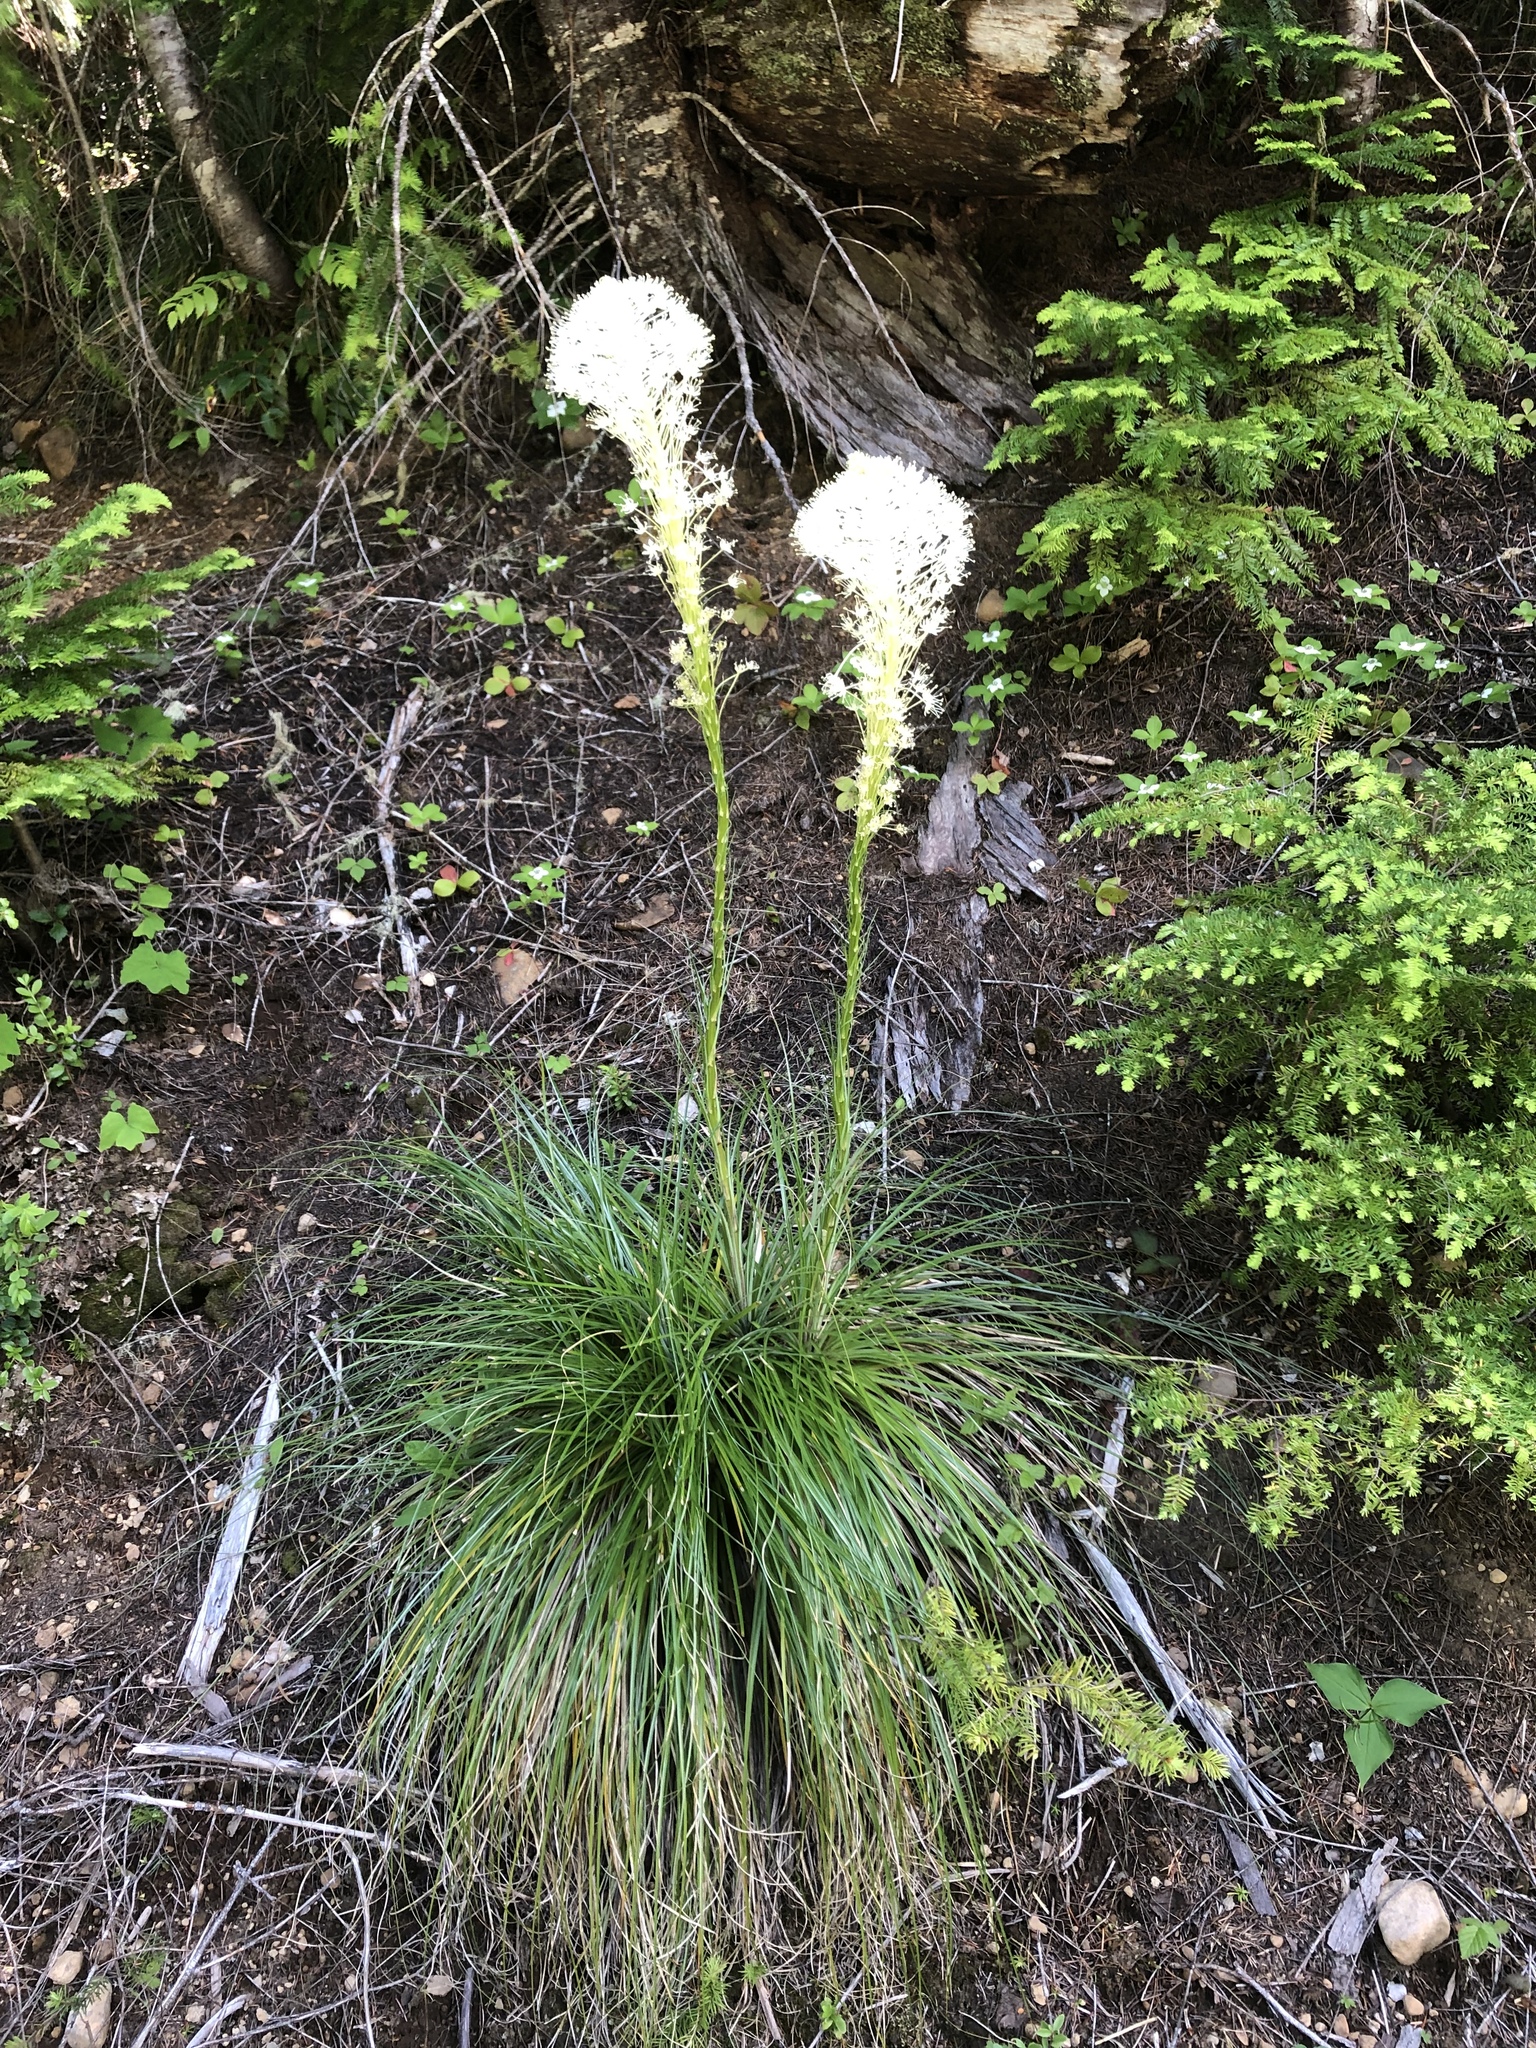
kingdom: Plantae
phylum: Tracheophyta
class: Liliopsida
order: Liliales
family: Melanthiaceae
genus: Xerophyllum
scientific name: Xerophyllum tenax
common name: Bear-grass
